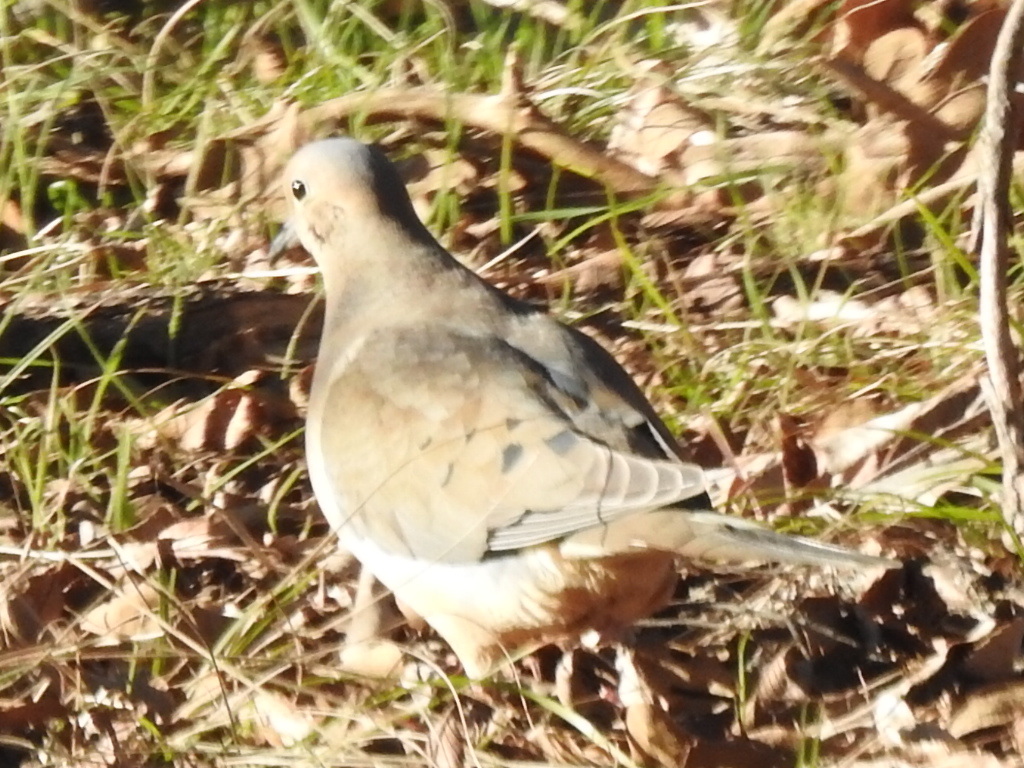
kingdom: Animalia
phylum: Chordata
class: Aves
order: Columbiformes
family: Columbidae
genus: Zenaida
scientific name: Zenaida macroura
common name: Mourning dove
